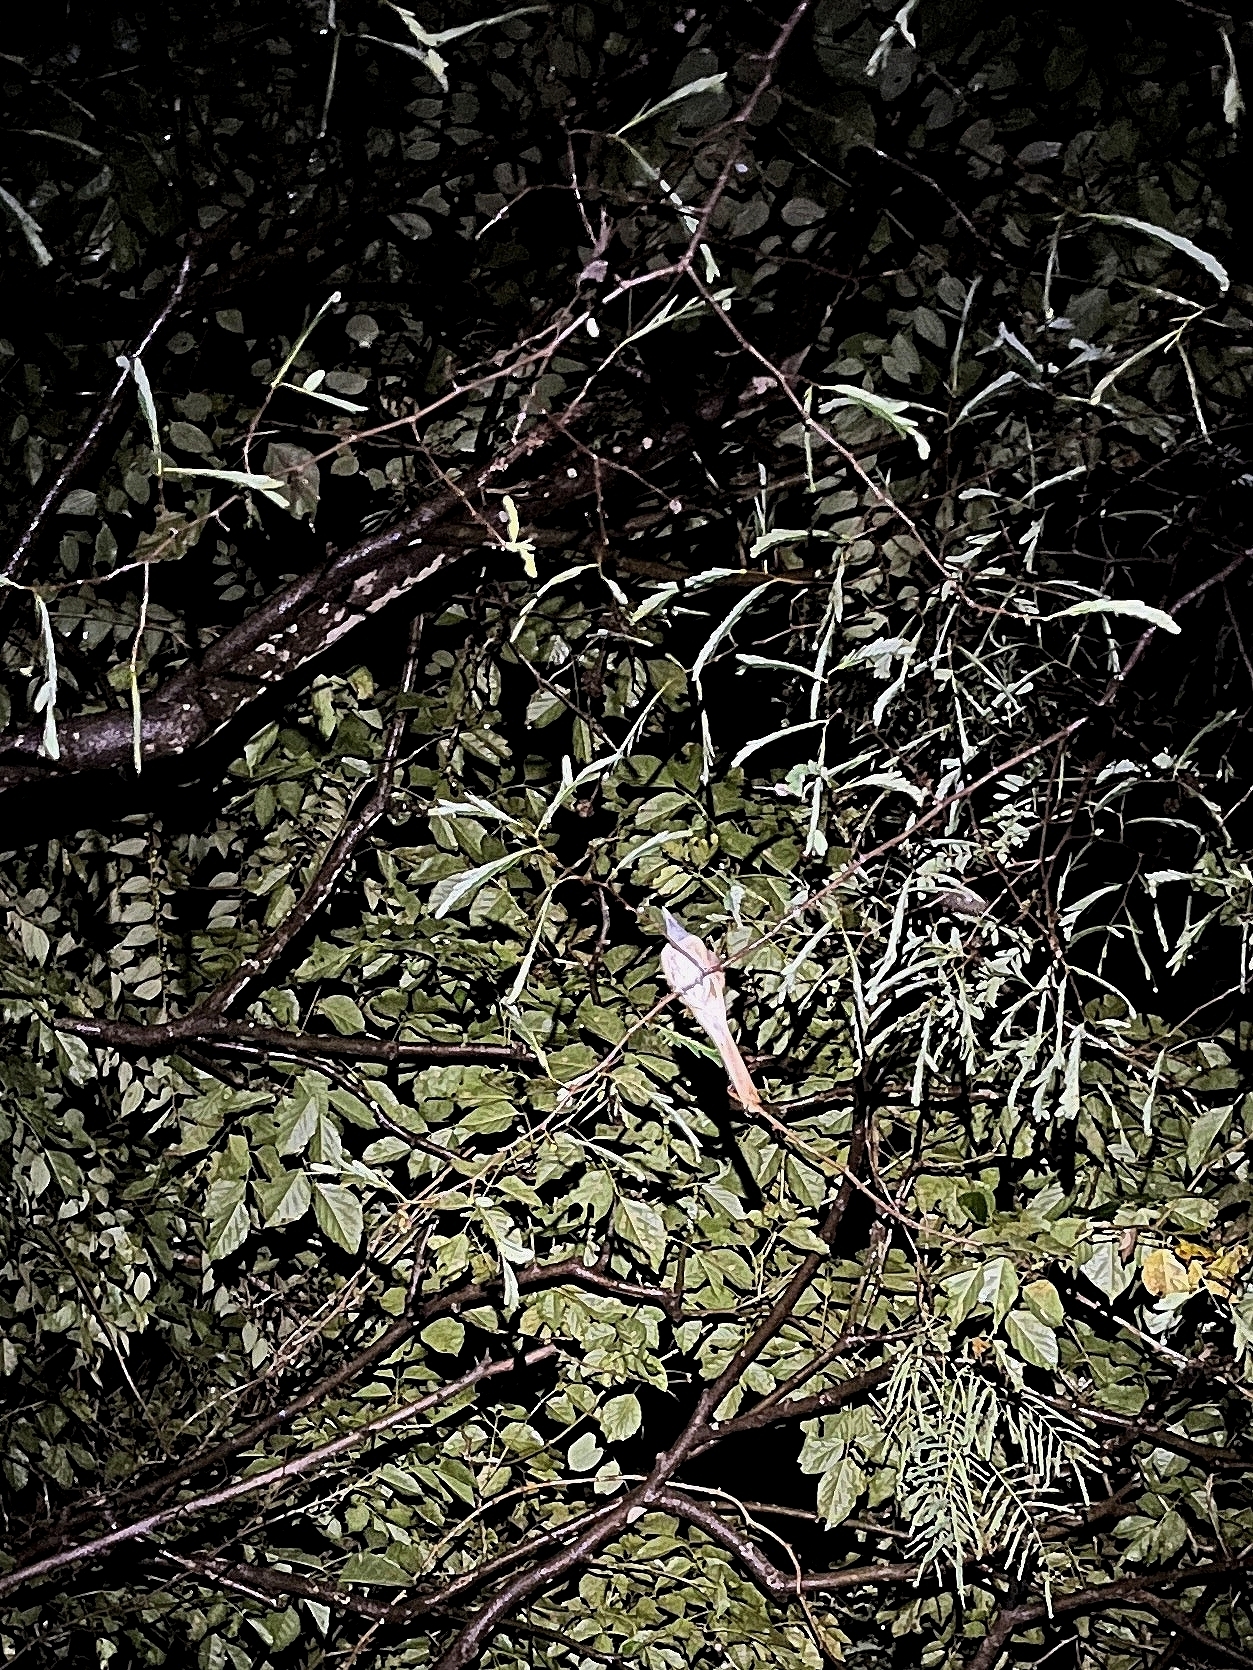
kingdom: Animalia
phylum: Chordata
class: Aves
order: Passeriformes
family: Monarchidae
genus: Terpsiphone
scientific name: Terpsiphone paradisi
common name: Indian paradise flycatcher
